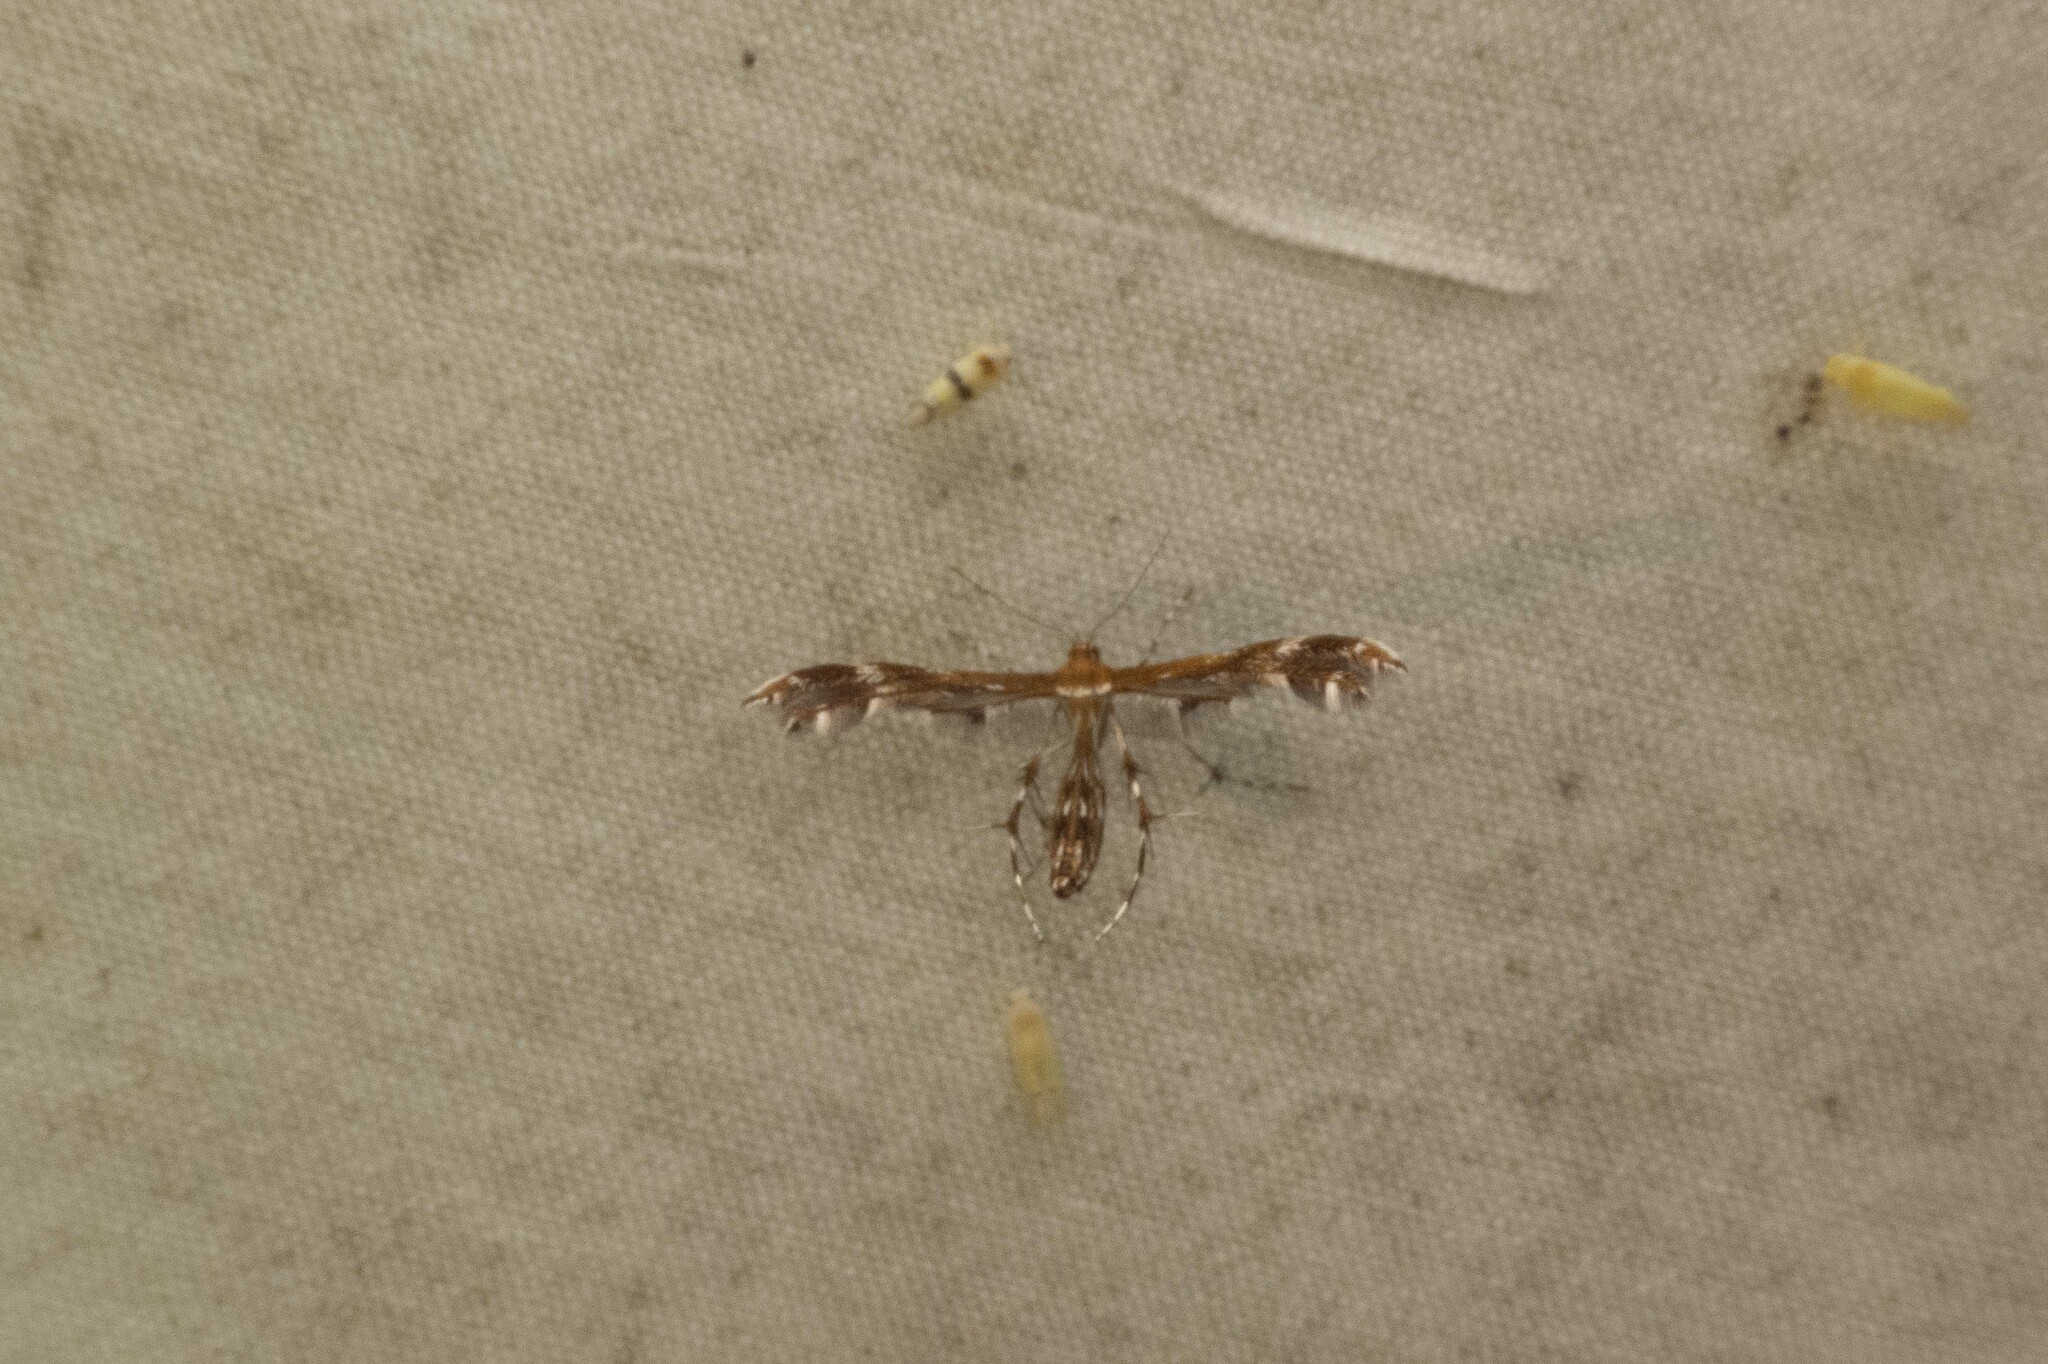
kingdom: Animalia
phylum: Arthropoda
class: Insecta
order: Lepidoptera
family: Pterophoridae
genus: Dejongia
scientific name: Dejongia lobidactylus
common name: Lobed plume moth
